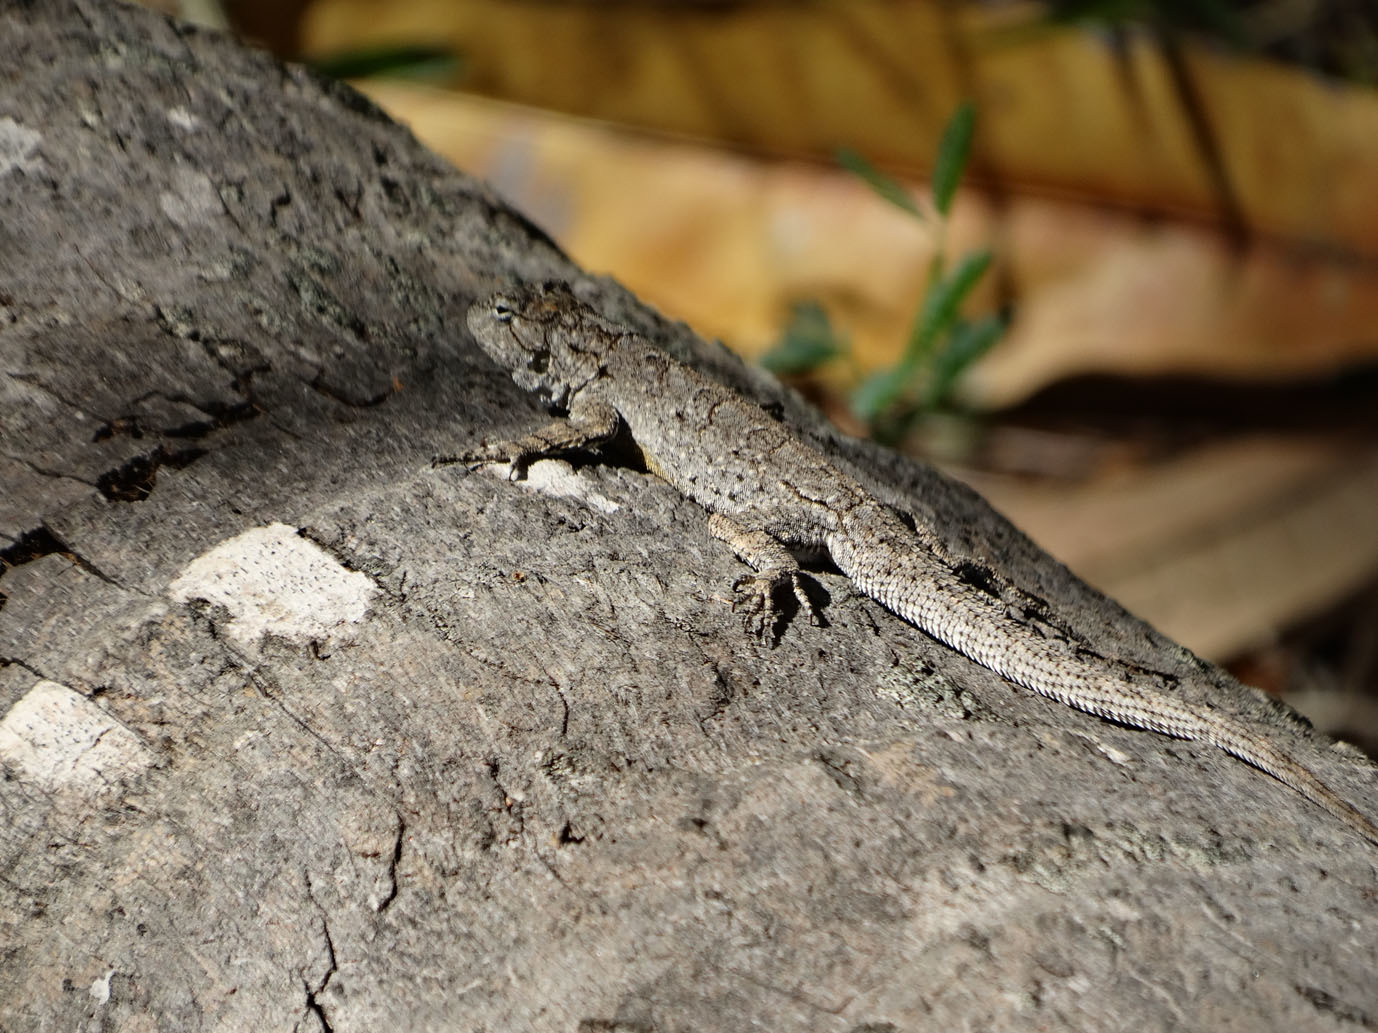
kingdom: Animalia
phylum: Chordata
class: Squamata
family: Phrynosomatidae
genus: Urosaurus
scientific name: Urosaurus bicarinatus
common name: Tropical tree lizard
